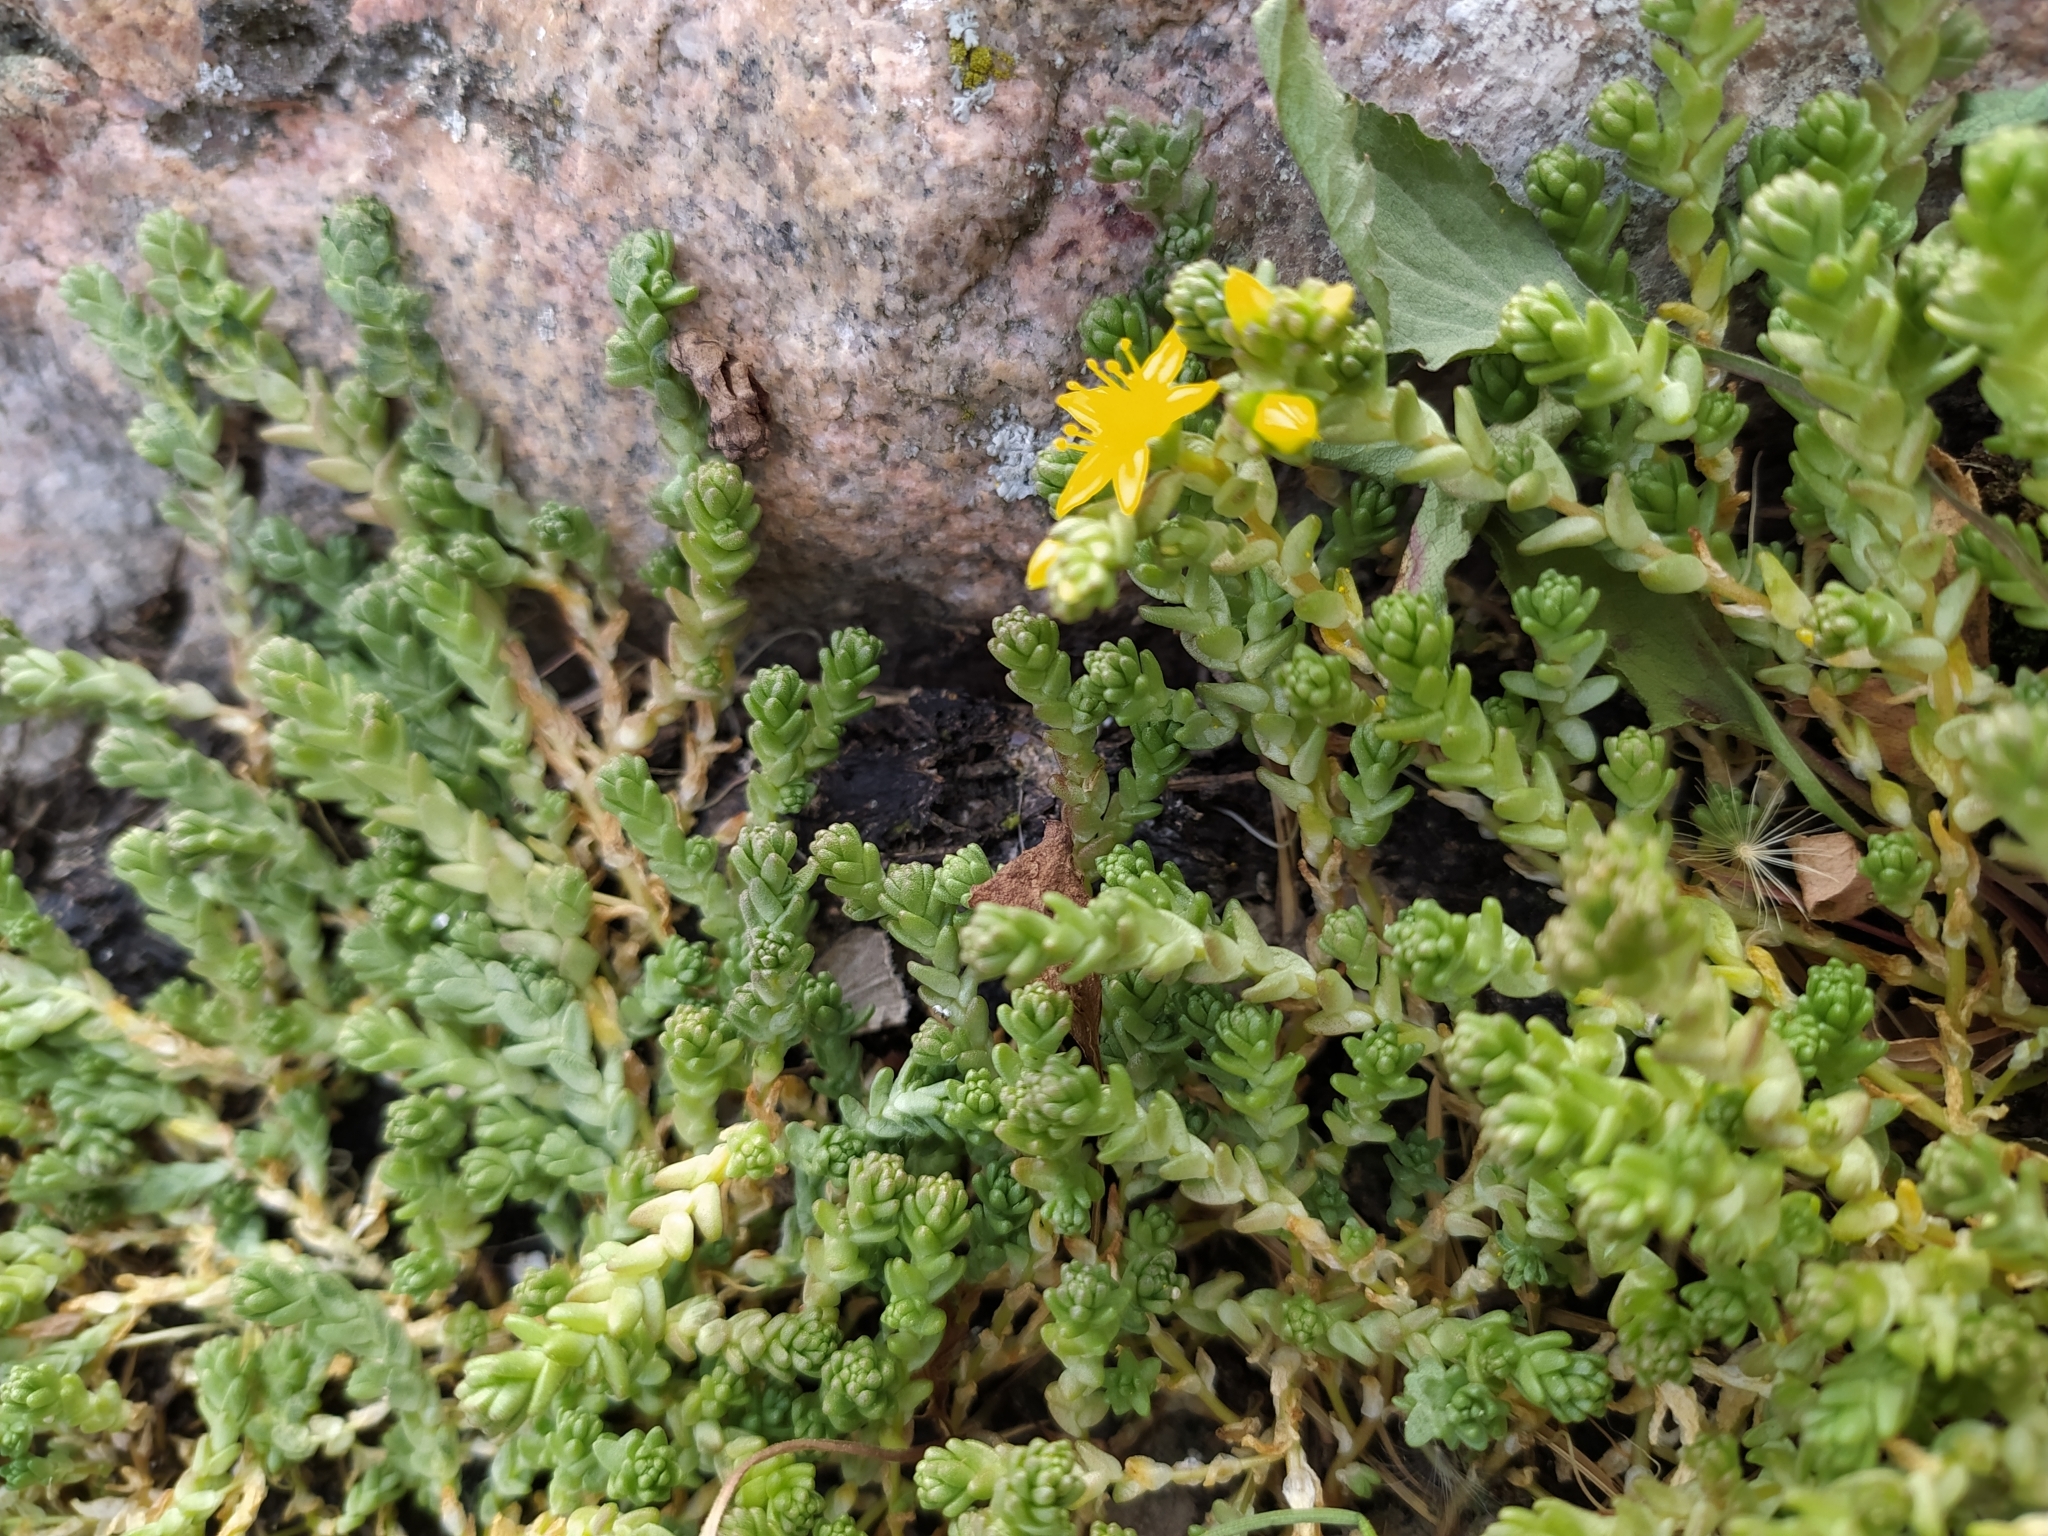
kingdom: Plantae
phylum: Tracheophyta
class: Magnoliopsida
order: Saxifragales
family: Crassulaceae
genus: Sedum
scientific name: Sedum acre
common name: Biting stonecrop
